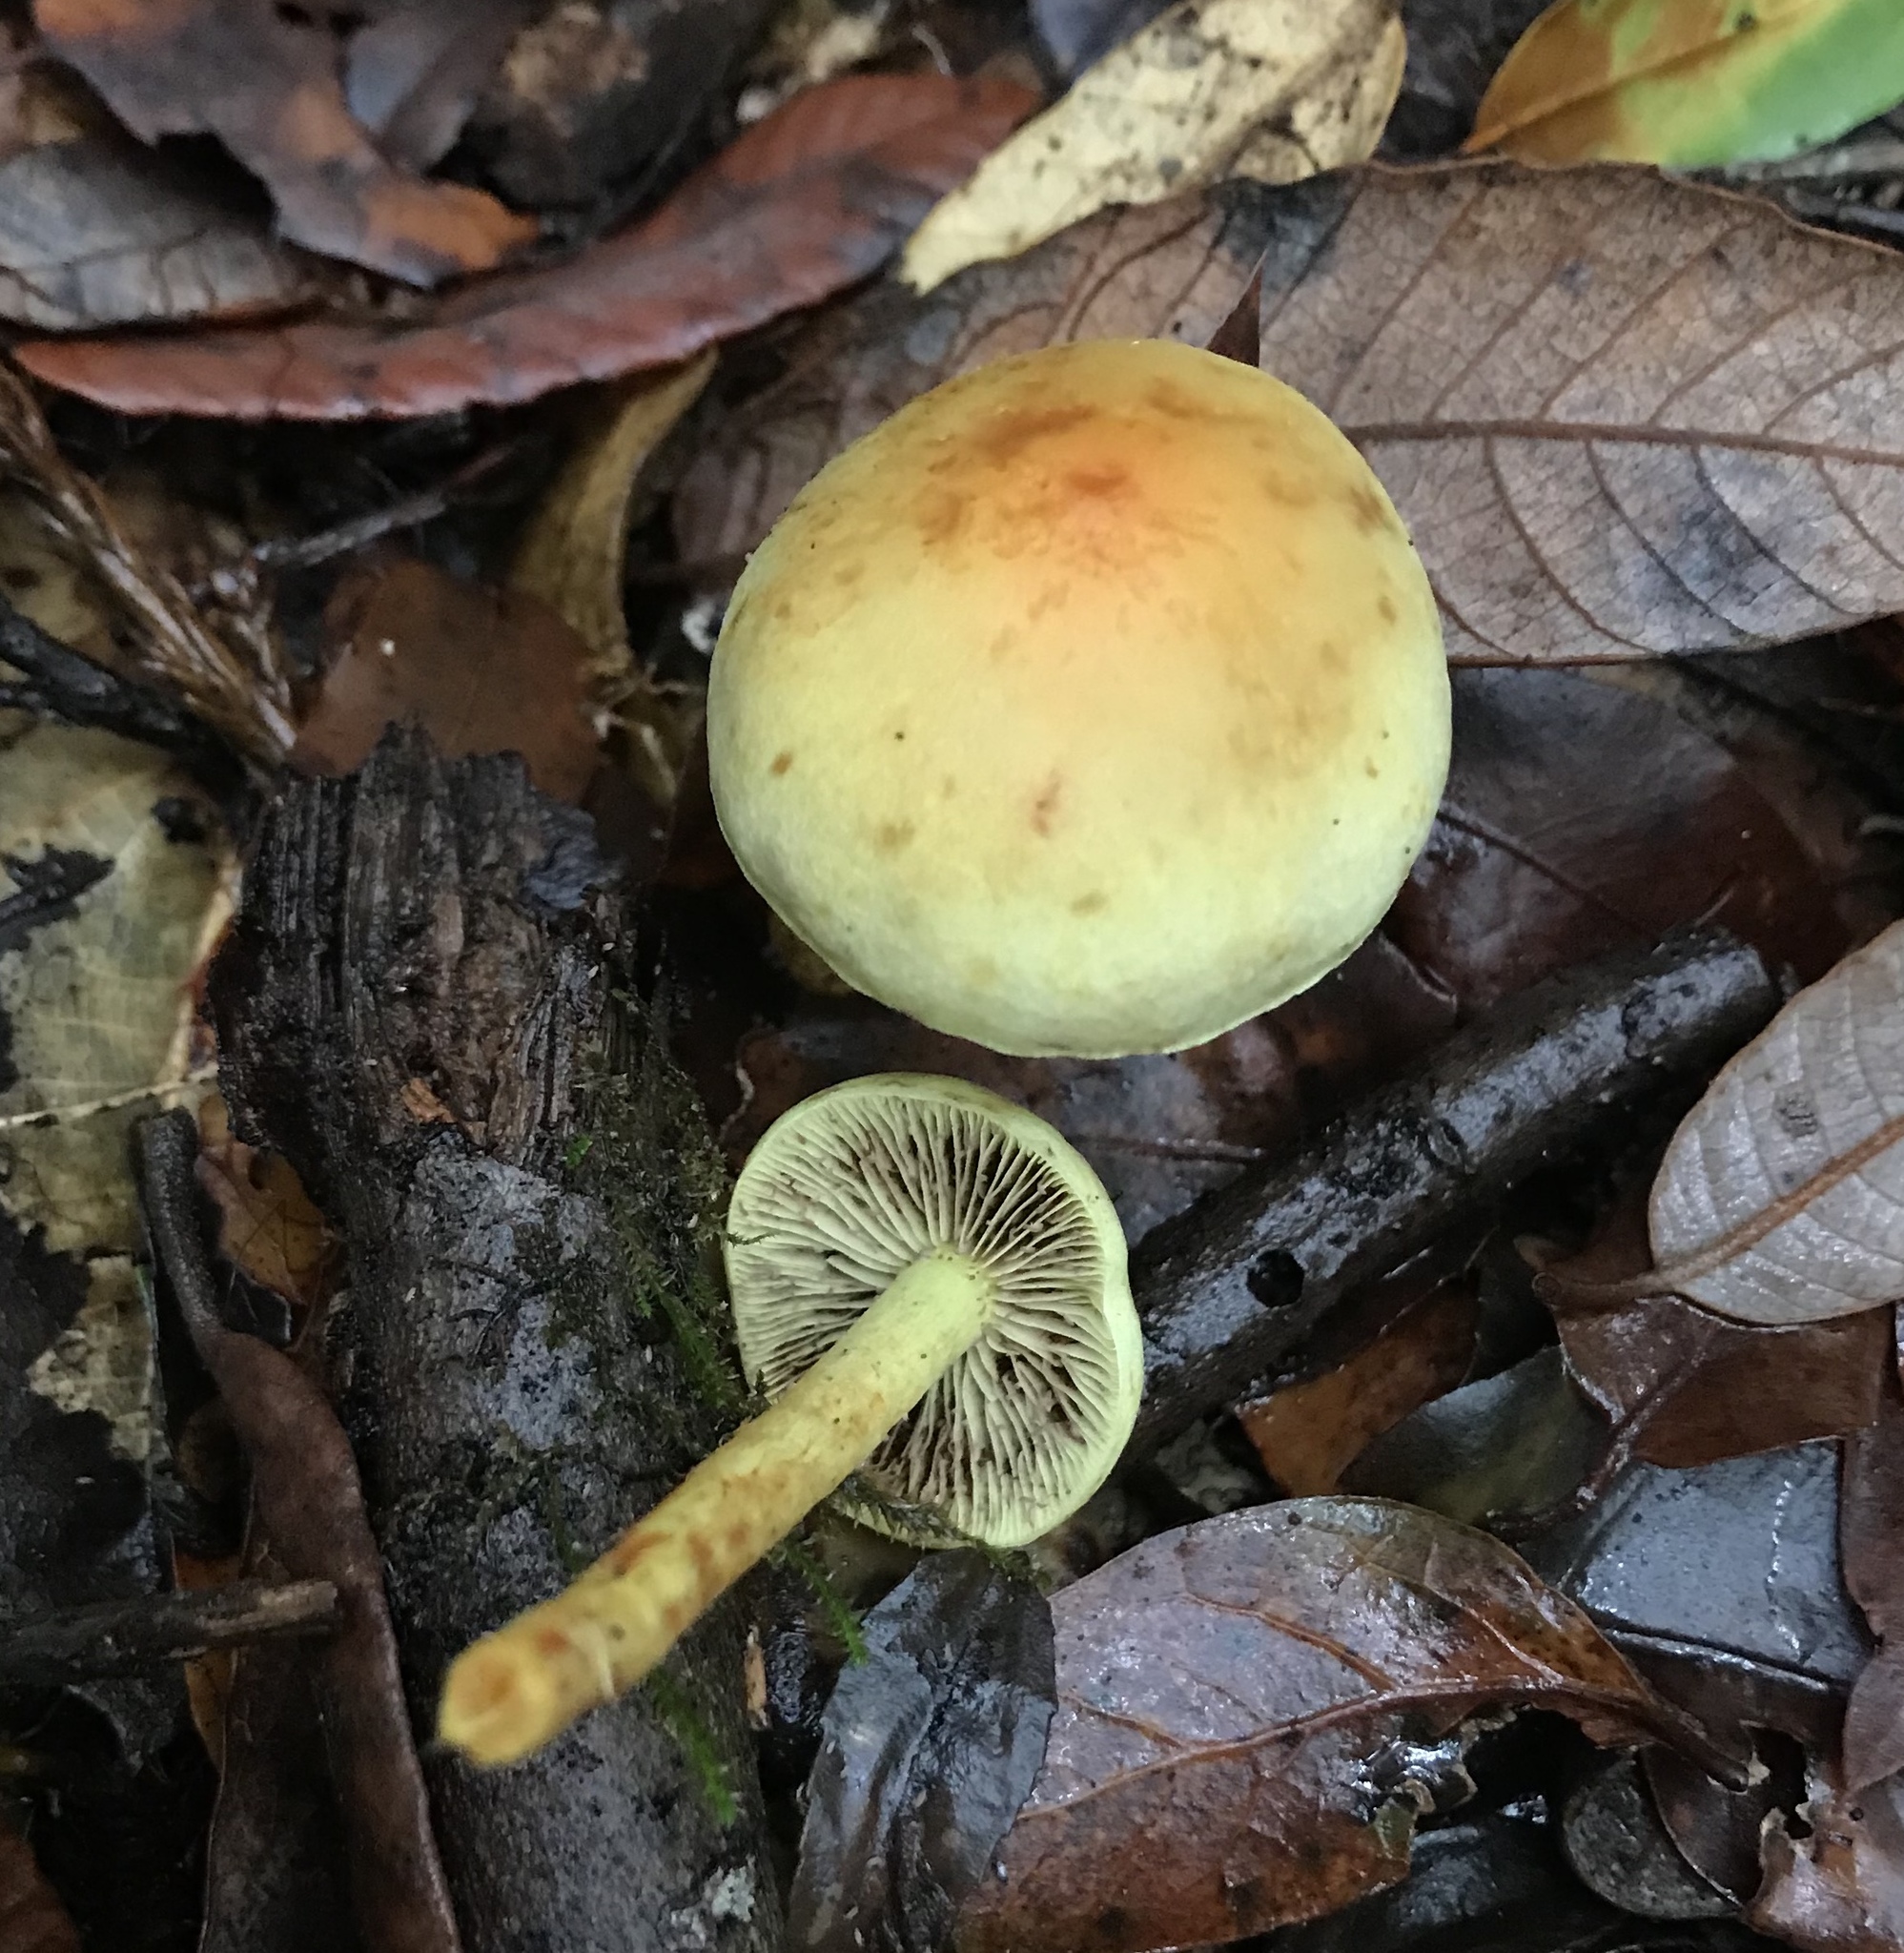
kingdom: Fungi
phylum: Basidiomycota
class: Agaricomycetes
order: Agaricales
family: Strophariaceae
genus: Hypholoma
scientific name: Hypholoma fasciculare
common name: Sulphur tuft
